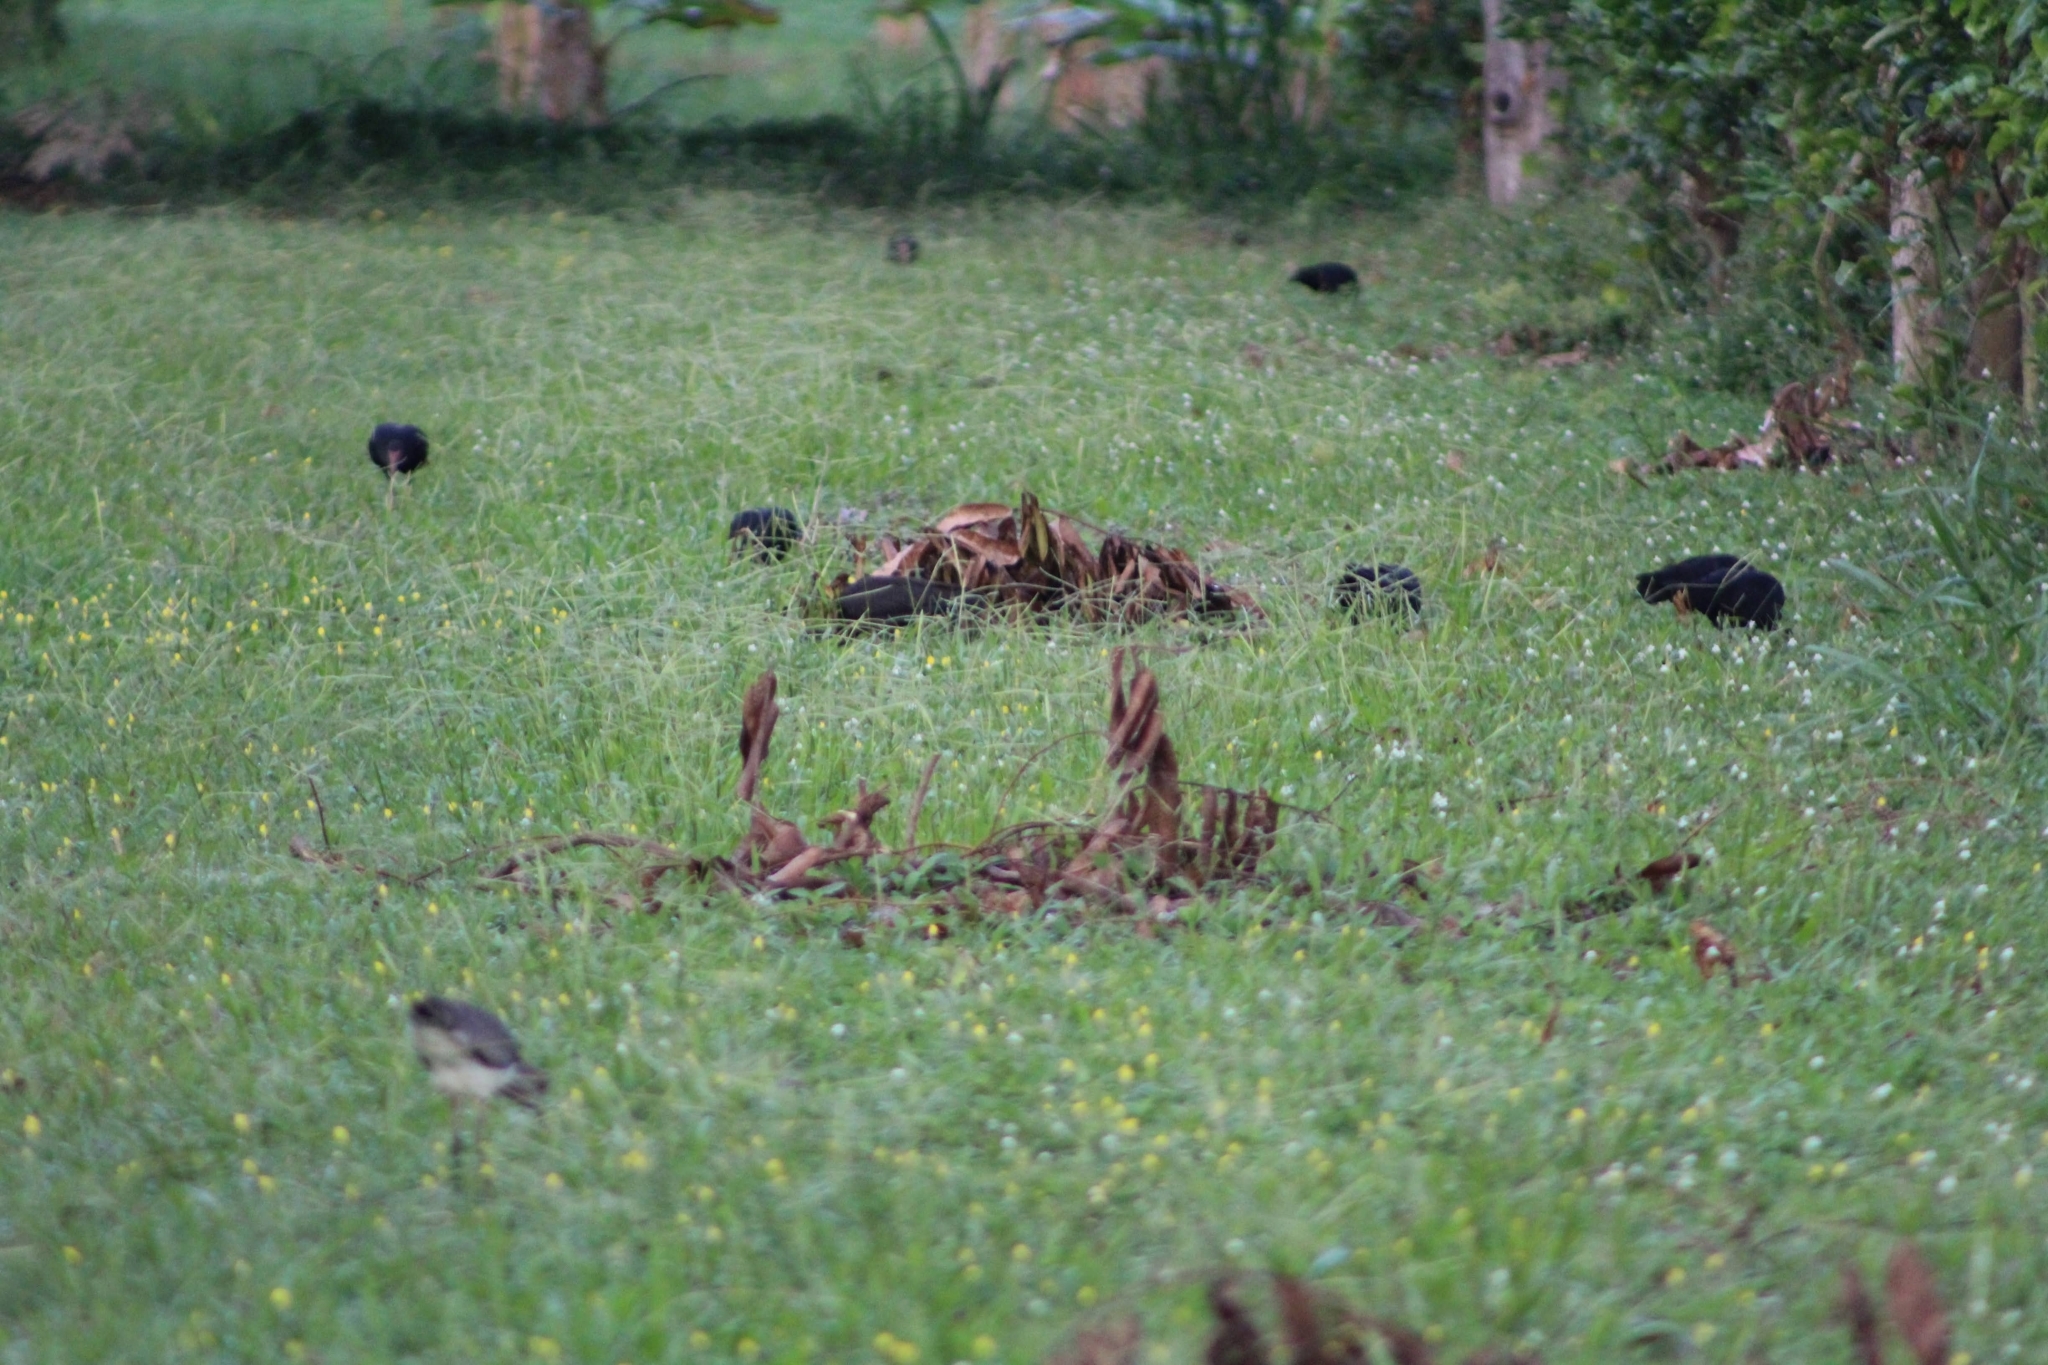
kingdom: Animalia
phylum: Chordata
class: Aves
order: Charadriiformes
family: Charadriidae
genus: Vanellus
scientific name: Vanellus chilensis
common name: Southern lapwing
